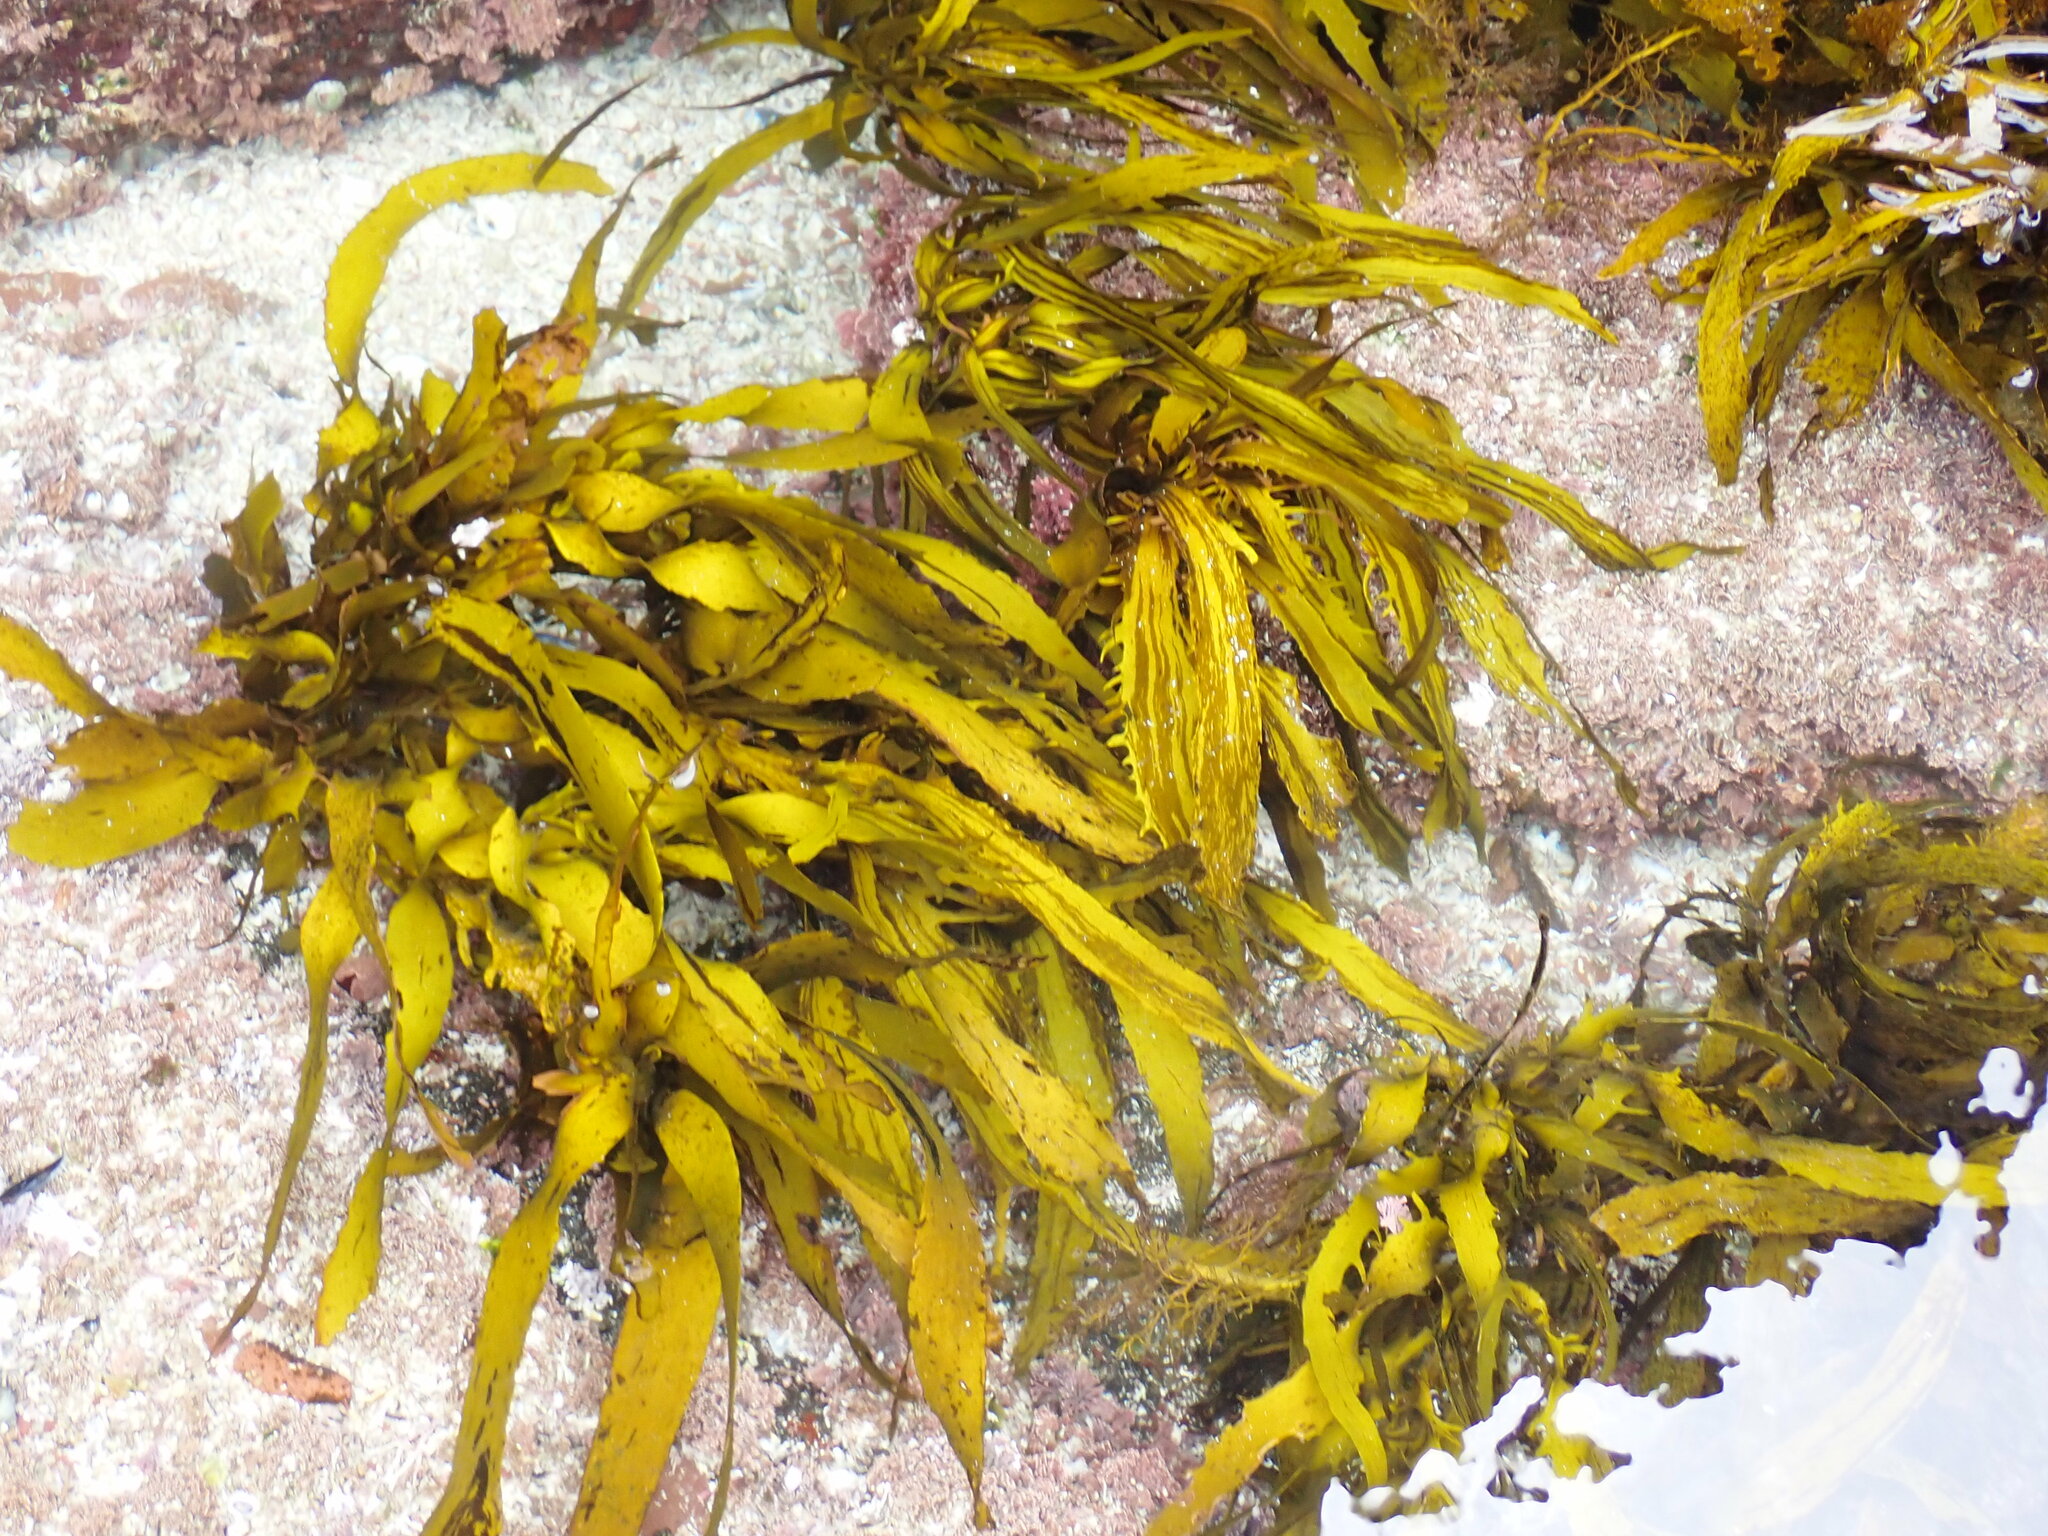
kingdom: Chromista
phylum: Ochrophyta
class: Phaeophyceae
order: Fucales
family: Seirococcaceae
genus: Phyllospora
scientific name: Phyllospora
